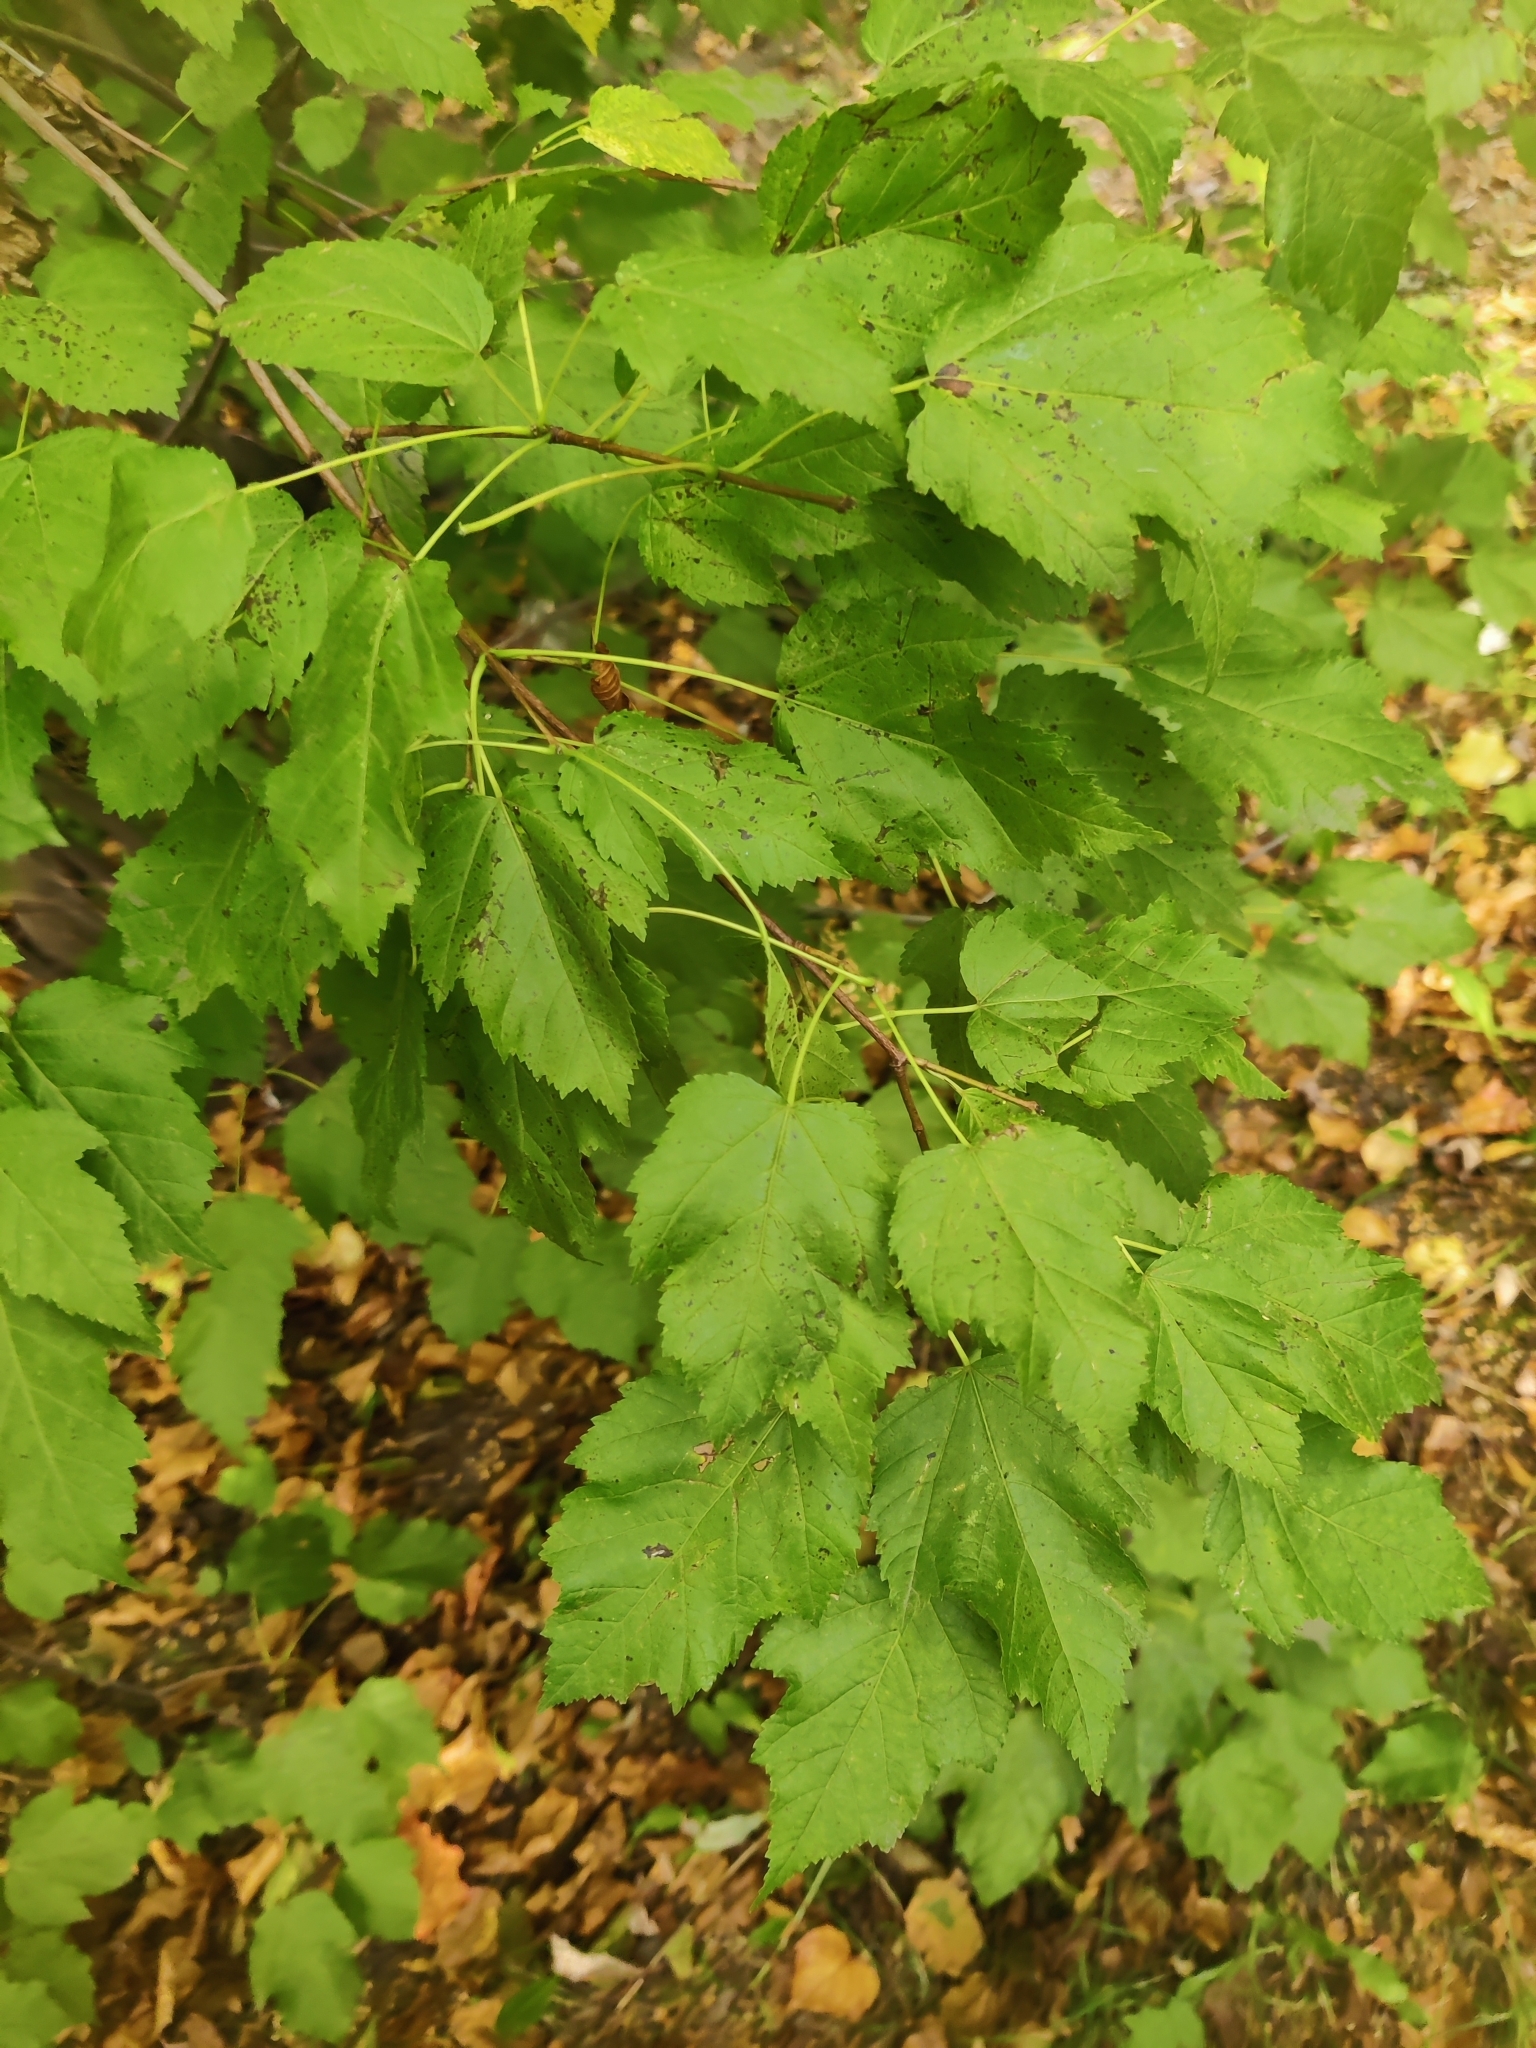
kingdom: Plantae
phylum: Tracheophyta
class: Magnoliopsida
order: Sapindales
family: Sapindaceae
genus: Acer
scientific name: Acer tataricum
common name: Tartar maple
